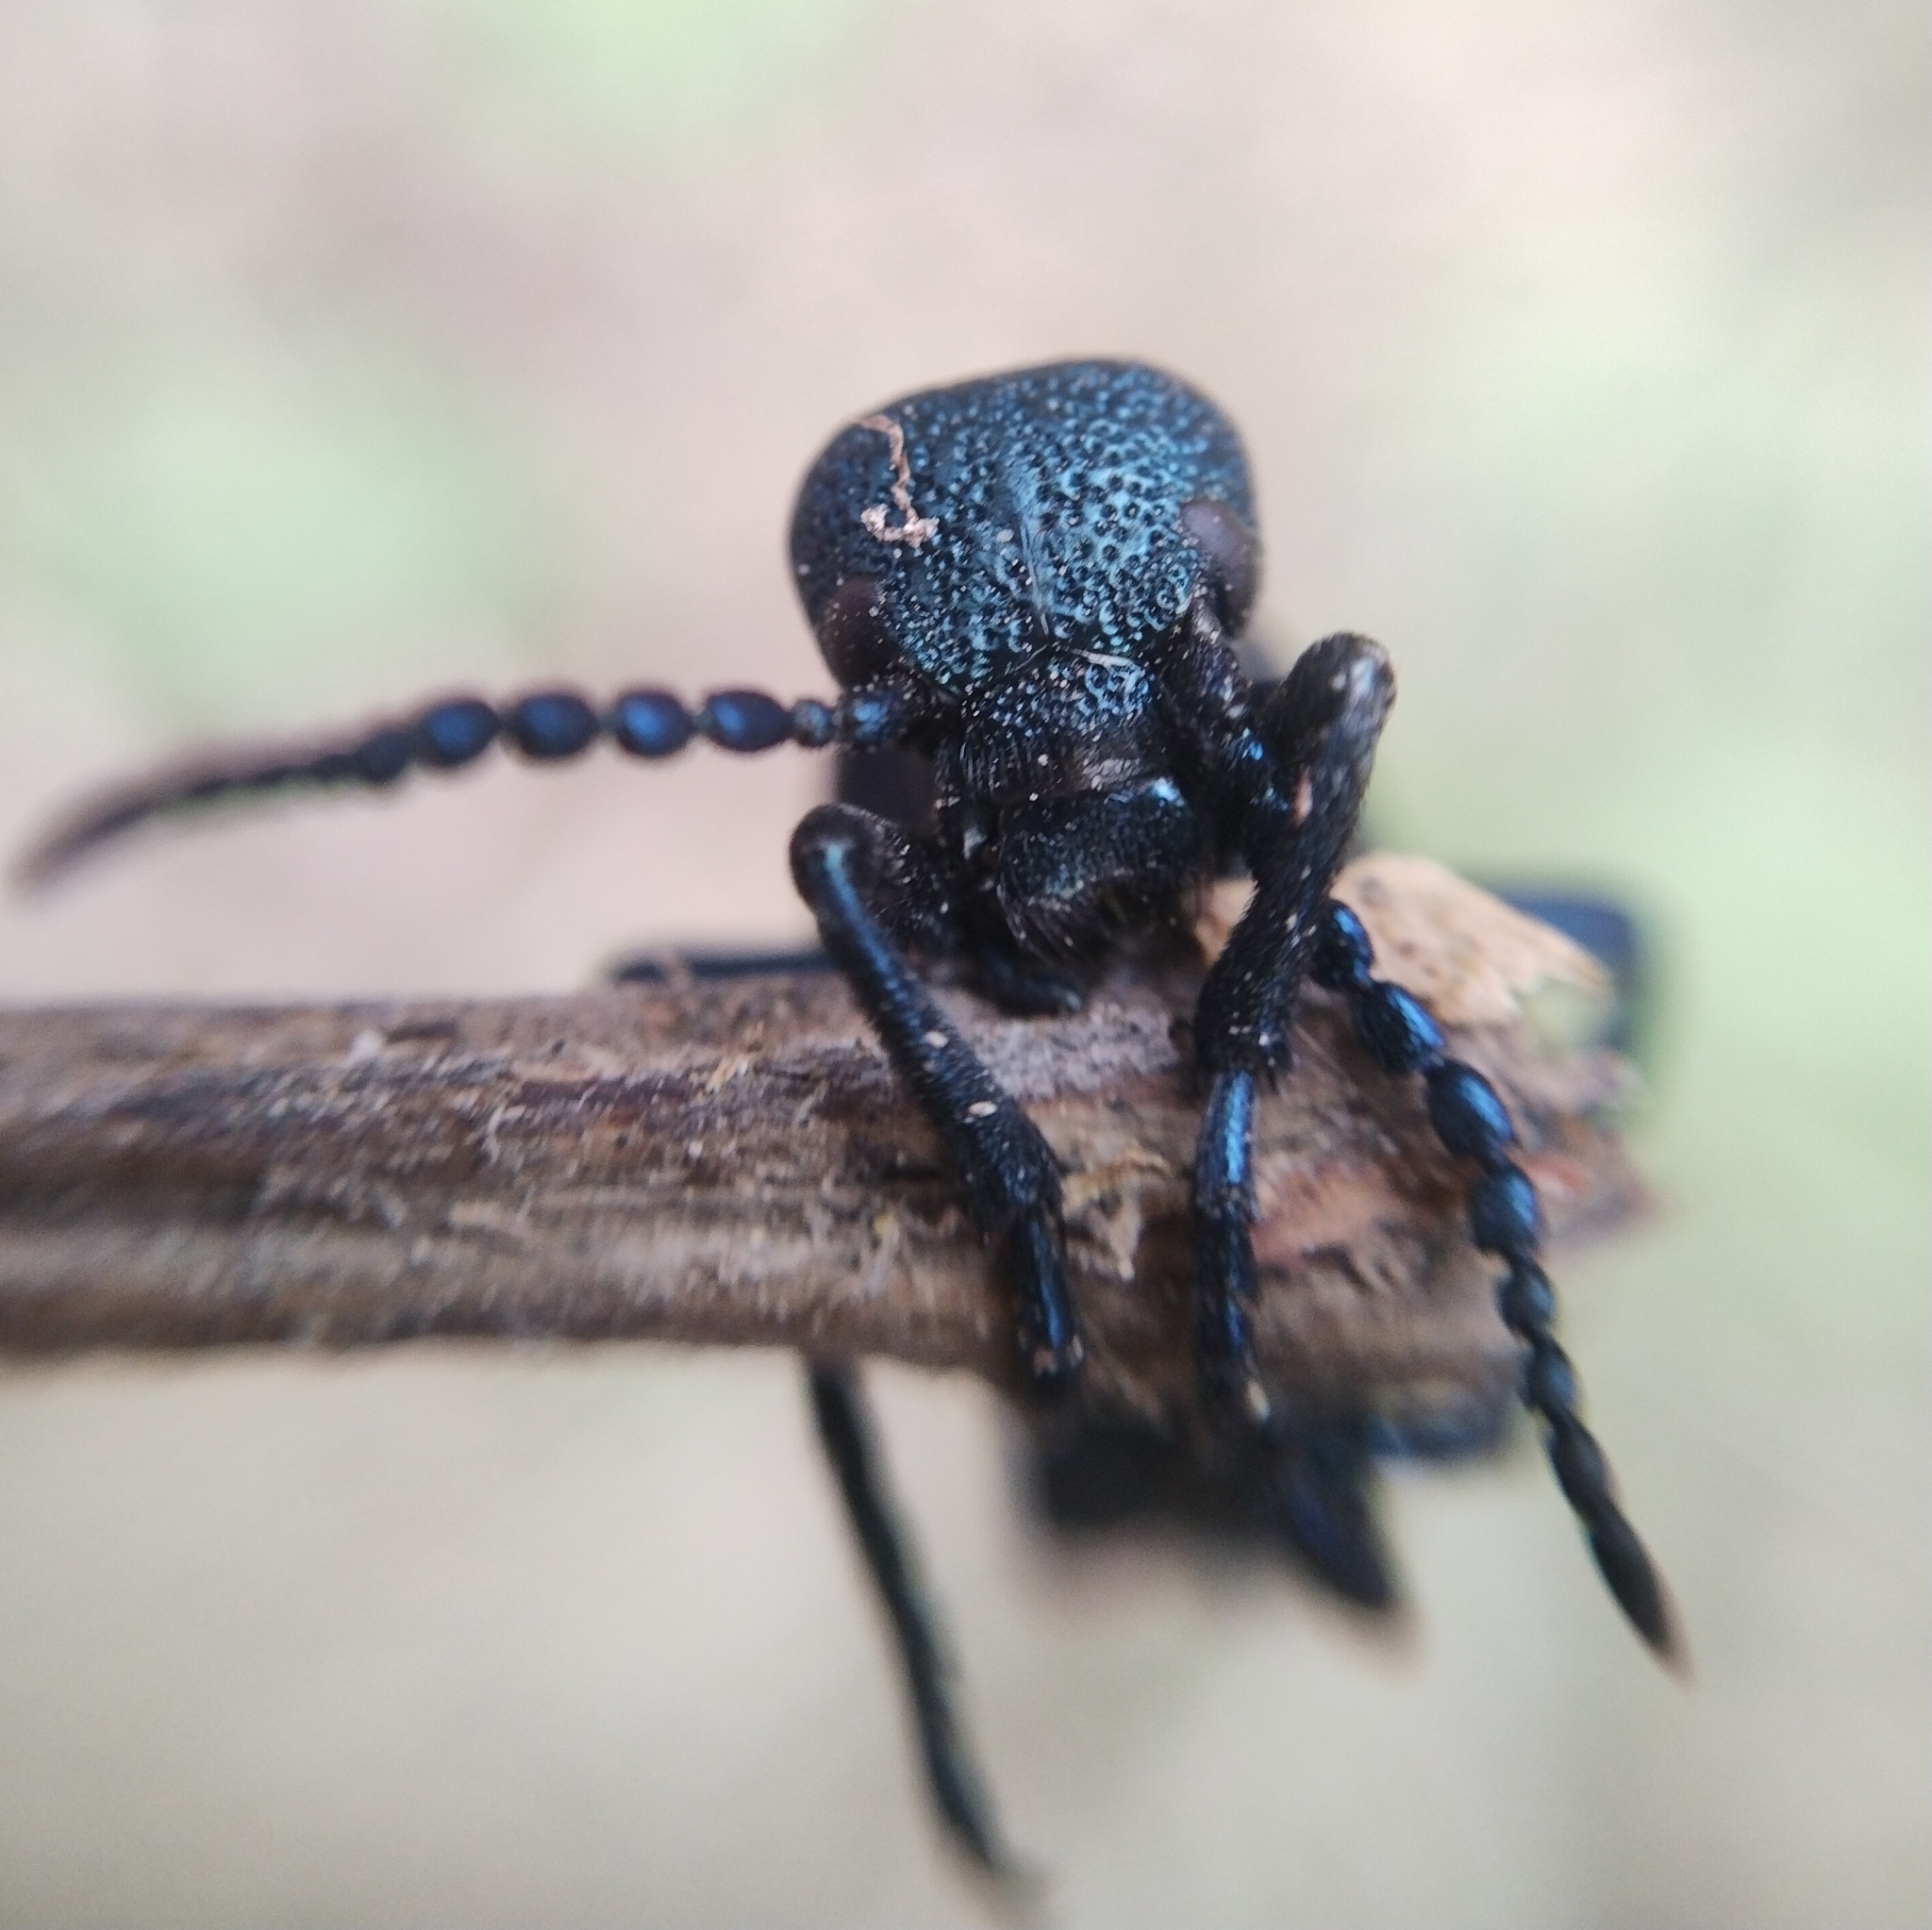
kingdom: Animalia
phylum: Arthropoda
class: Insecta
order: Coleoptera
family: Meloidae
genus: Meloe
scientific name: Meloe proscarabaeus
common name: Black oil-beetle
